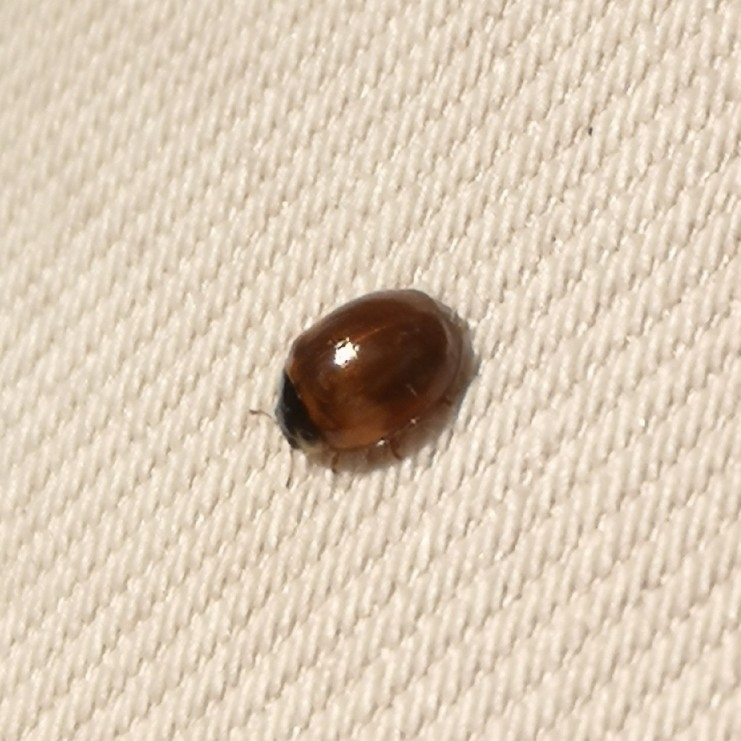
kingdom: Animalia
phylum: Arthropoda
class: Insecta
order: Coleoptera
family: Coccinellidae
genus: Adalia
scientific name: Adalia decempunctata
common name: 10-spot ladybird
